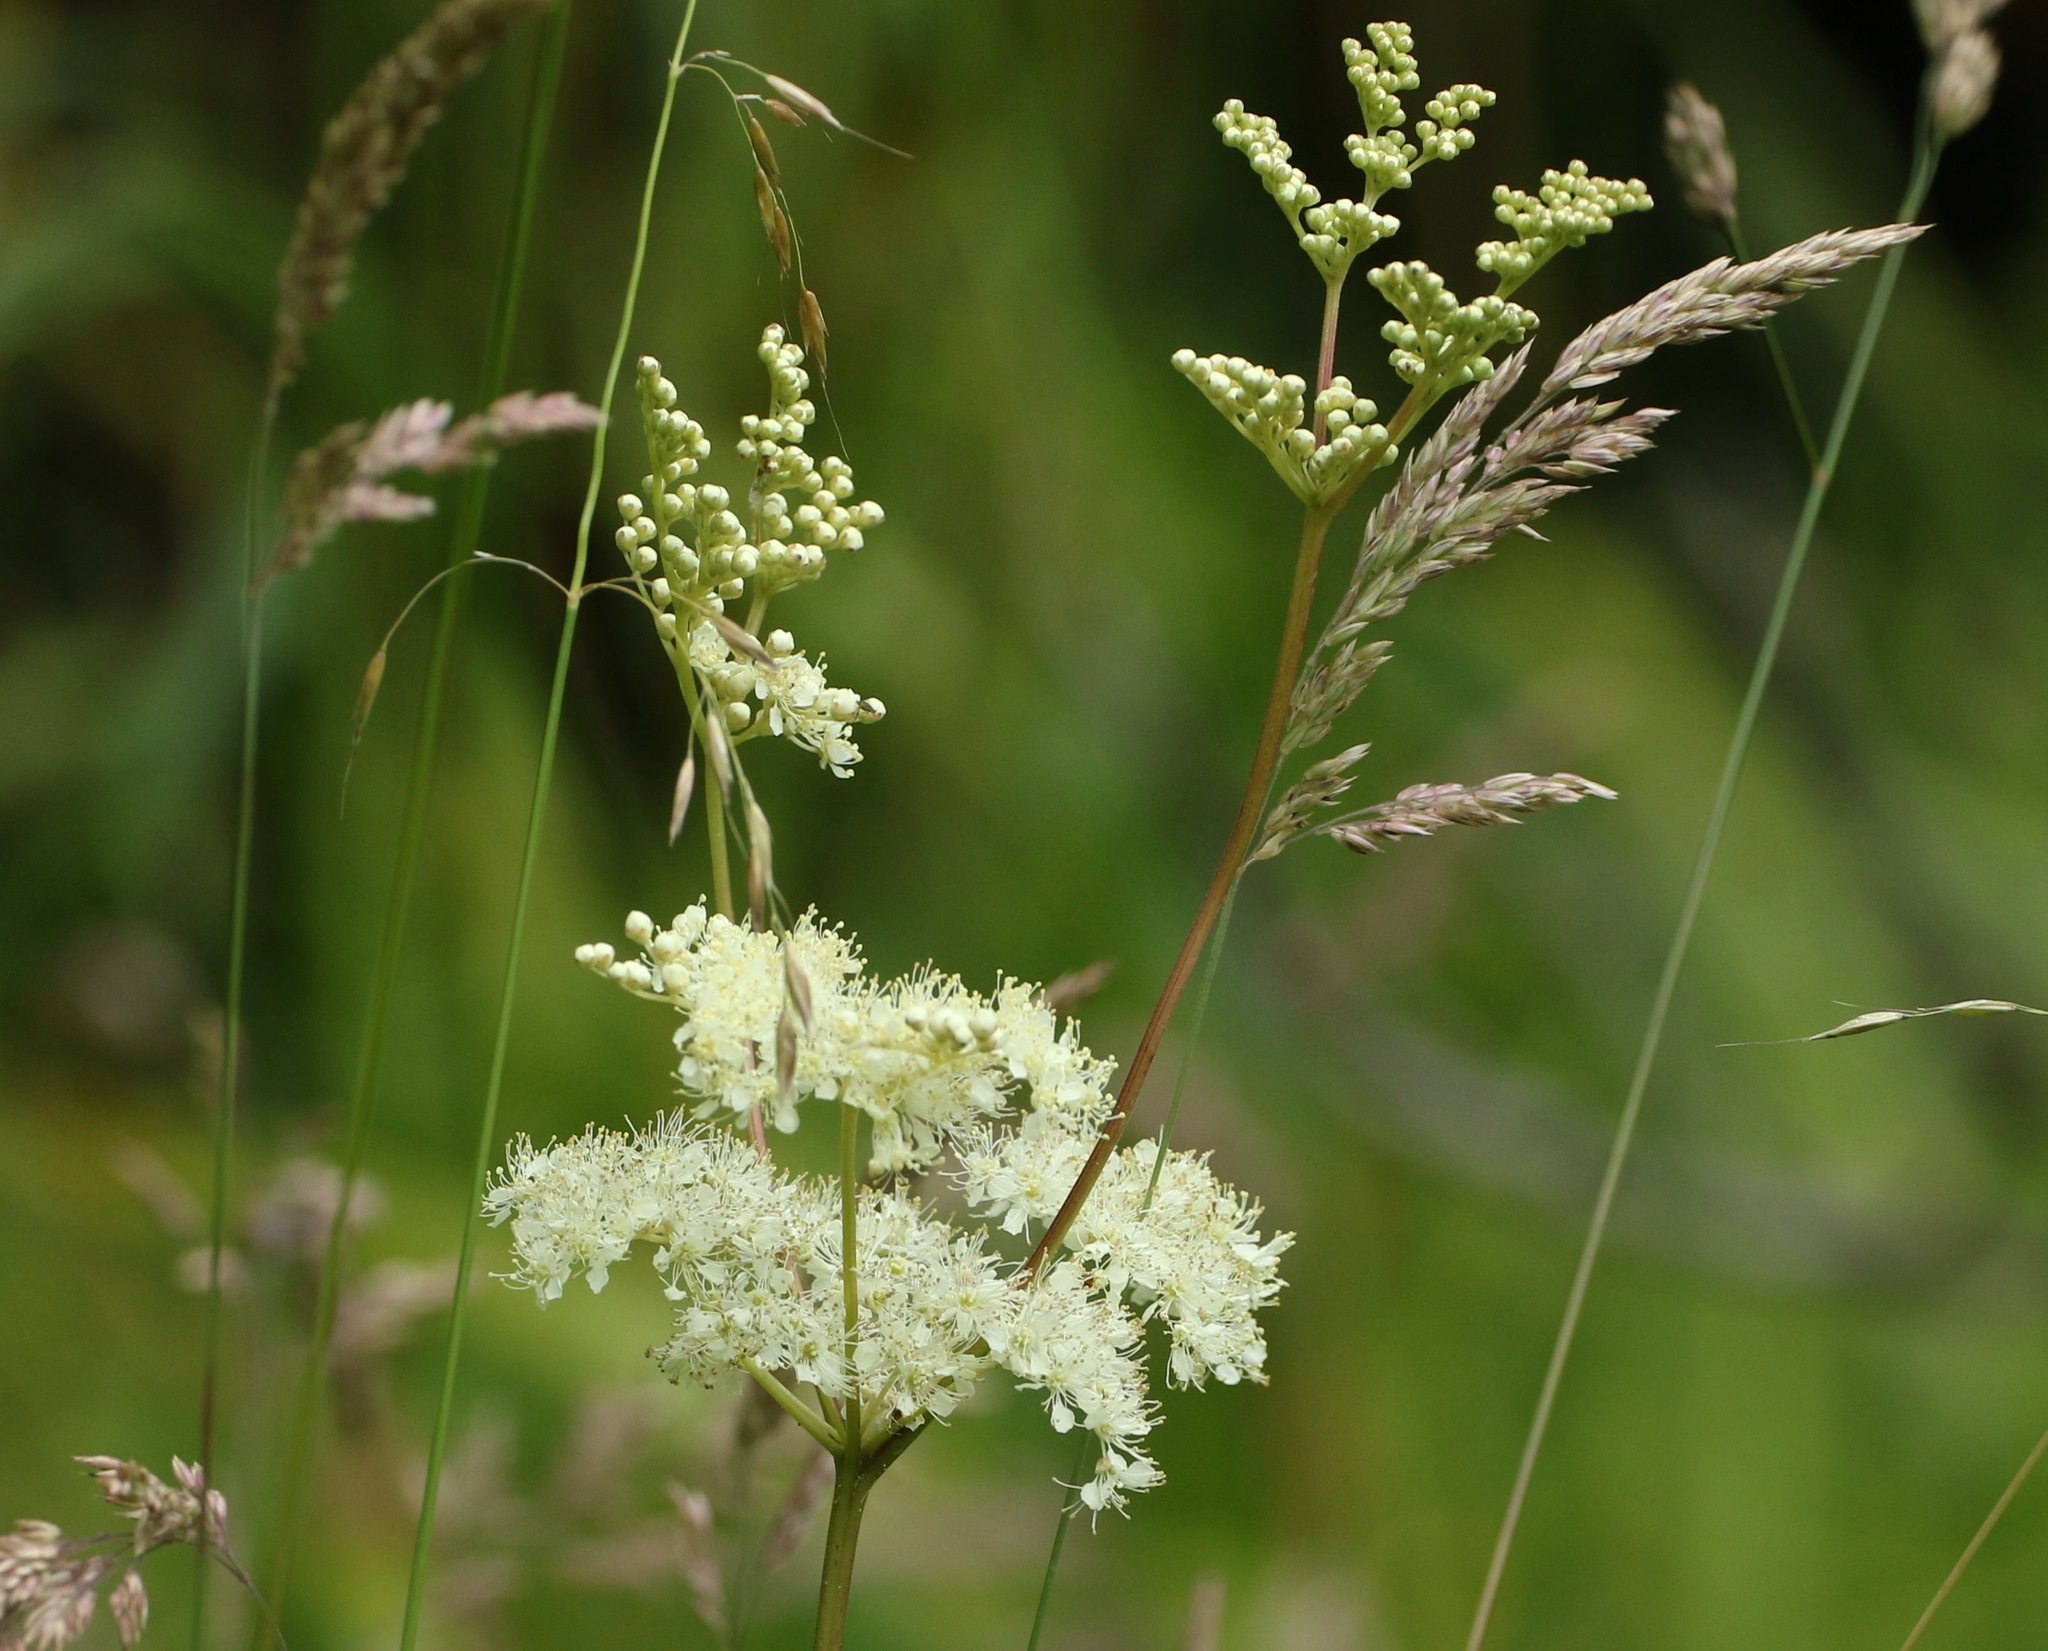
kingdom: Plantae
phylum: Tracheophyta
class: Magnoliopsida
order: Rosales
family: Rosaceae
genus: Filipendula
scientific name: Filipendula ulmaria
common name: Meadowsweet
